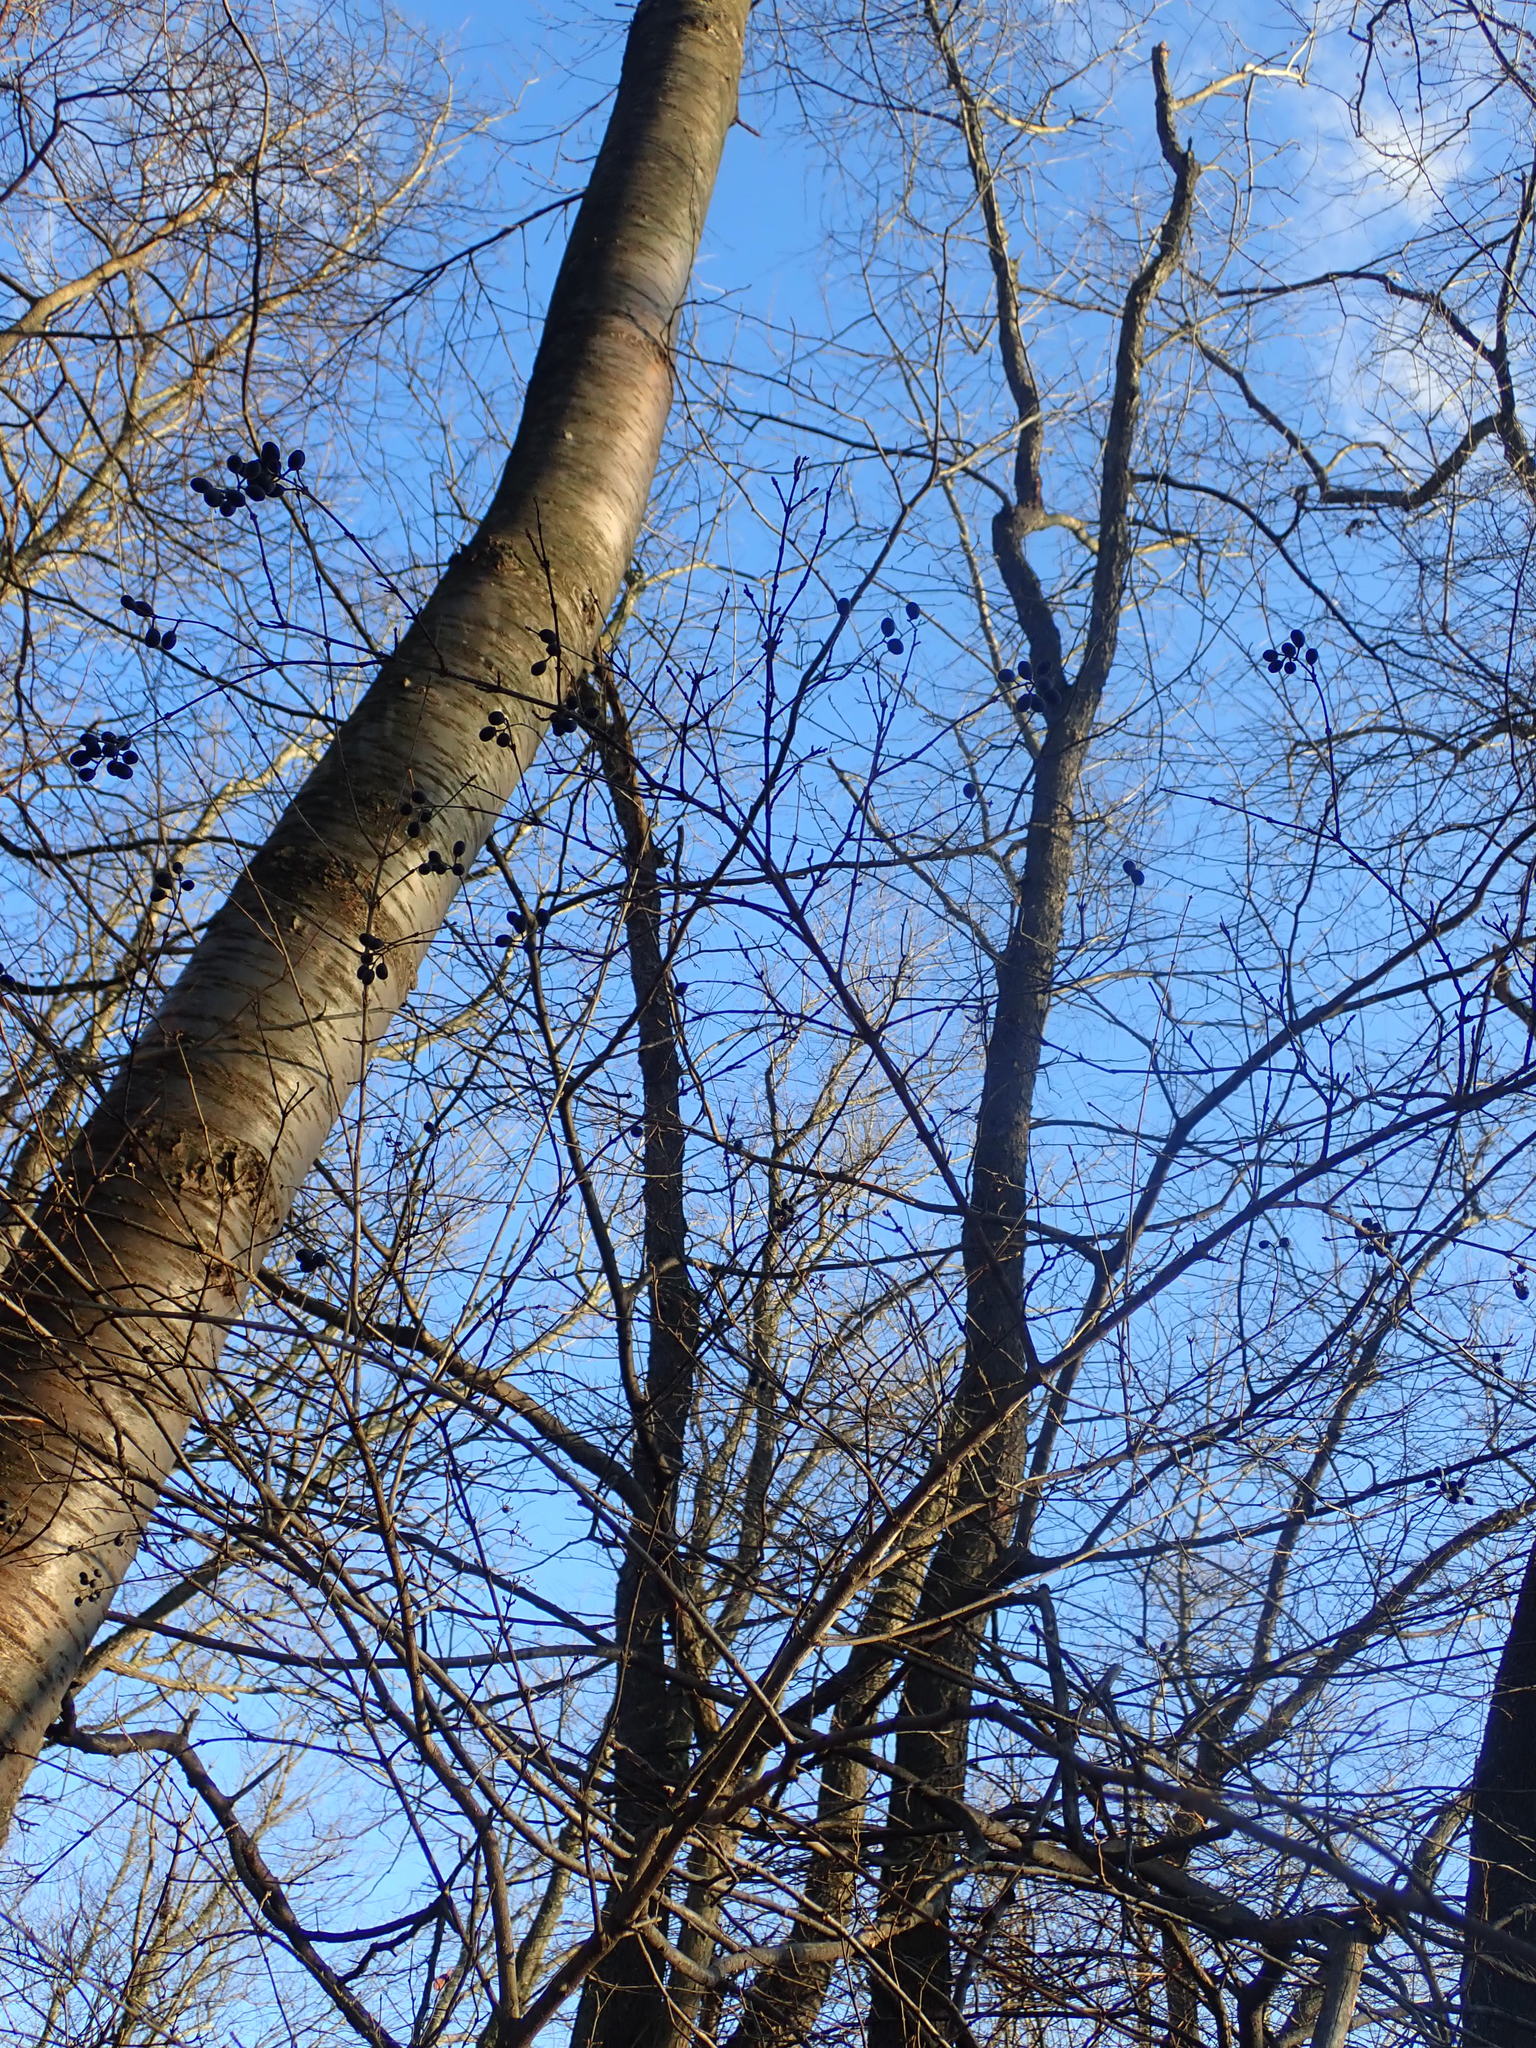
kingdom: Plantae
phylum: Tracheophyta
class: Magnoliopsida
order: Lamiales
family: Oleaceae
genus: Ligustrum
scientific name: Ligustrum obtusifolium
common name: Border privet
